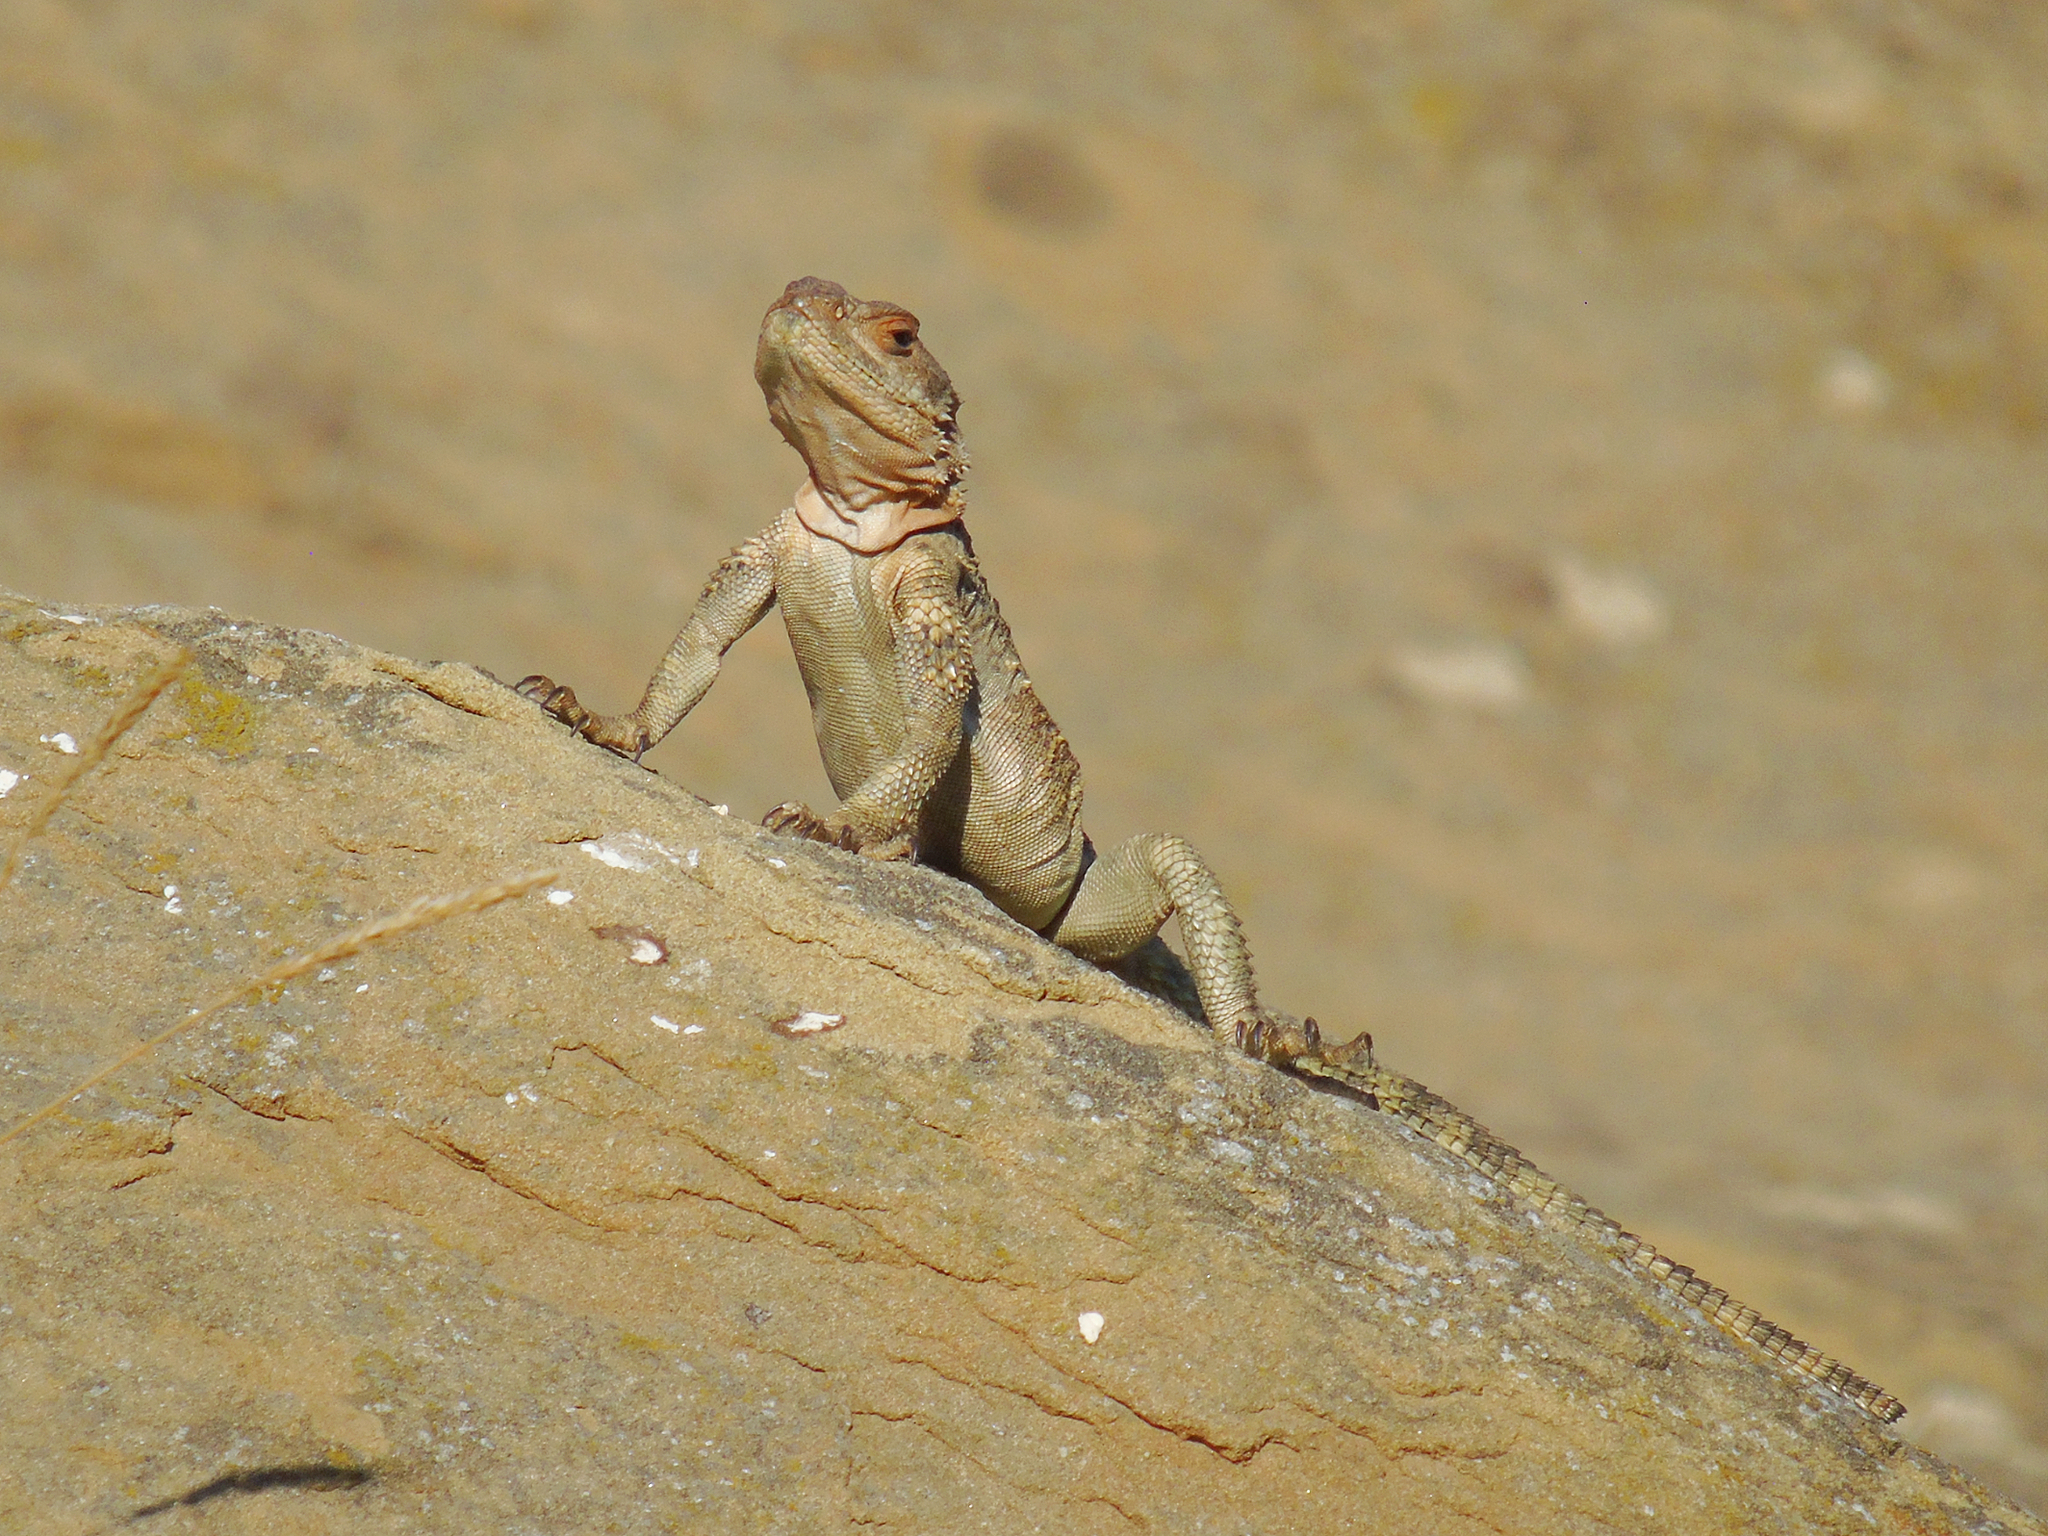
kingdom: Animalia
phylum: Chordata
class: Squamata
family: Agamidae
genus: Paralaudakia
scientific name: Paralaudakia caucasia
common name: Caucasian agama
